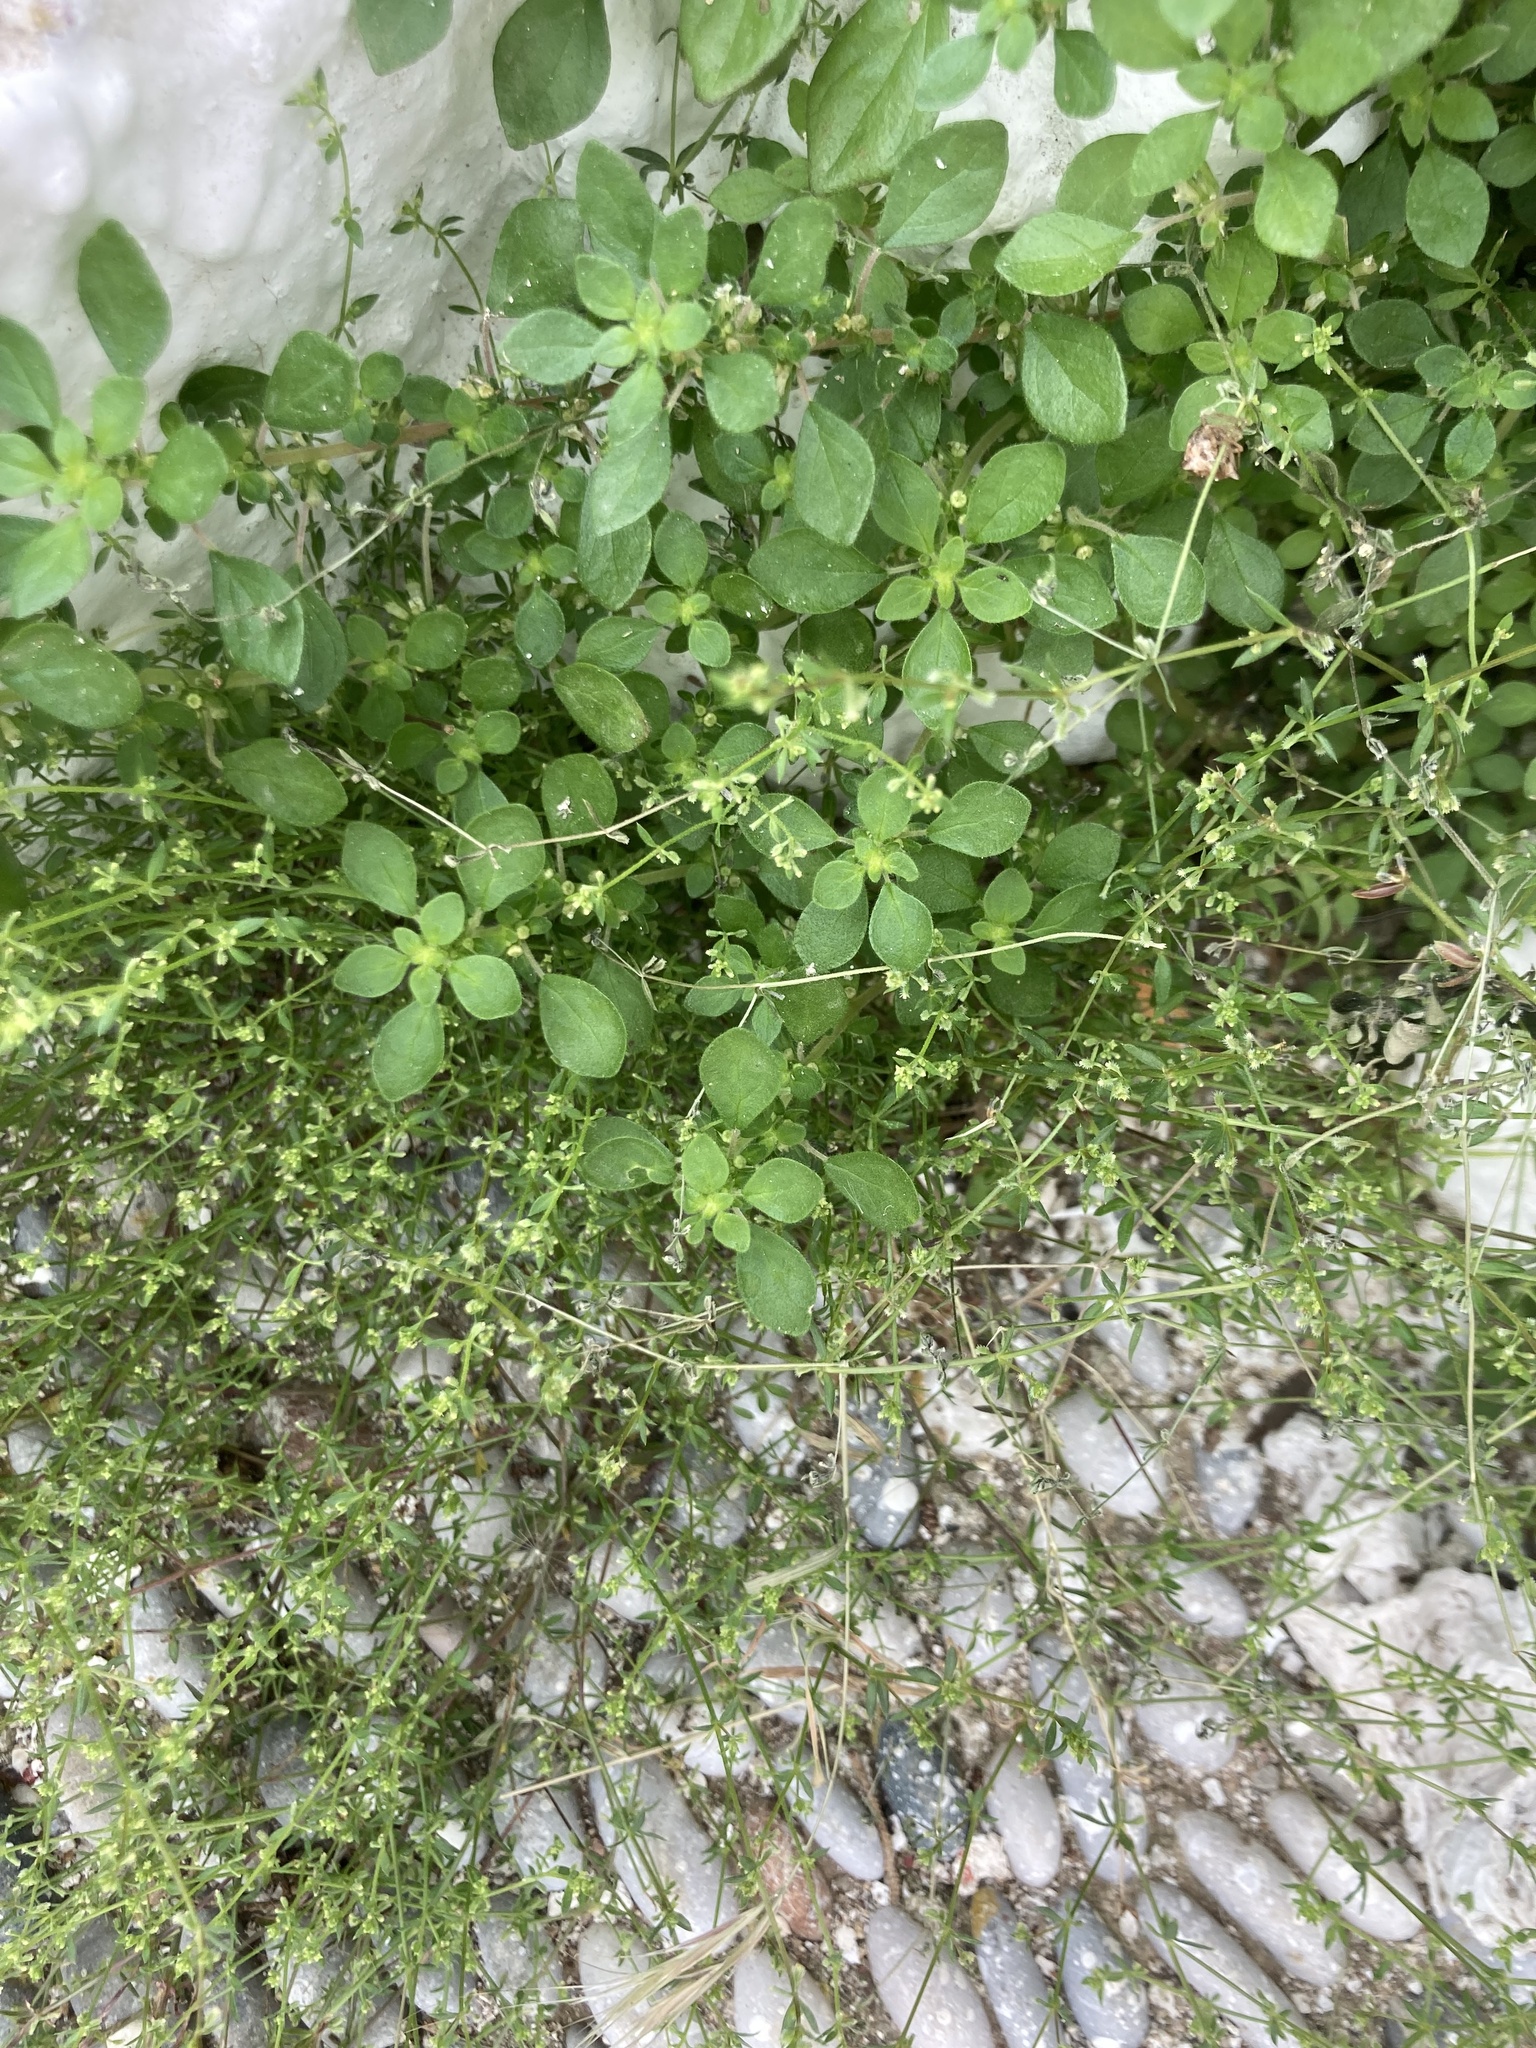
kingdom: Plantae
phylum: Tracheophyta
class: Magnoliopsida
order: Gentianales
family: Rubiaceae
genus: Galium
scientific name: Galium murale
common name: Yellow wall bedstraw
